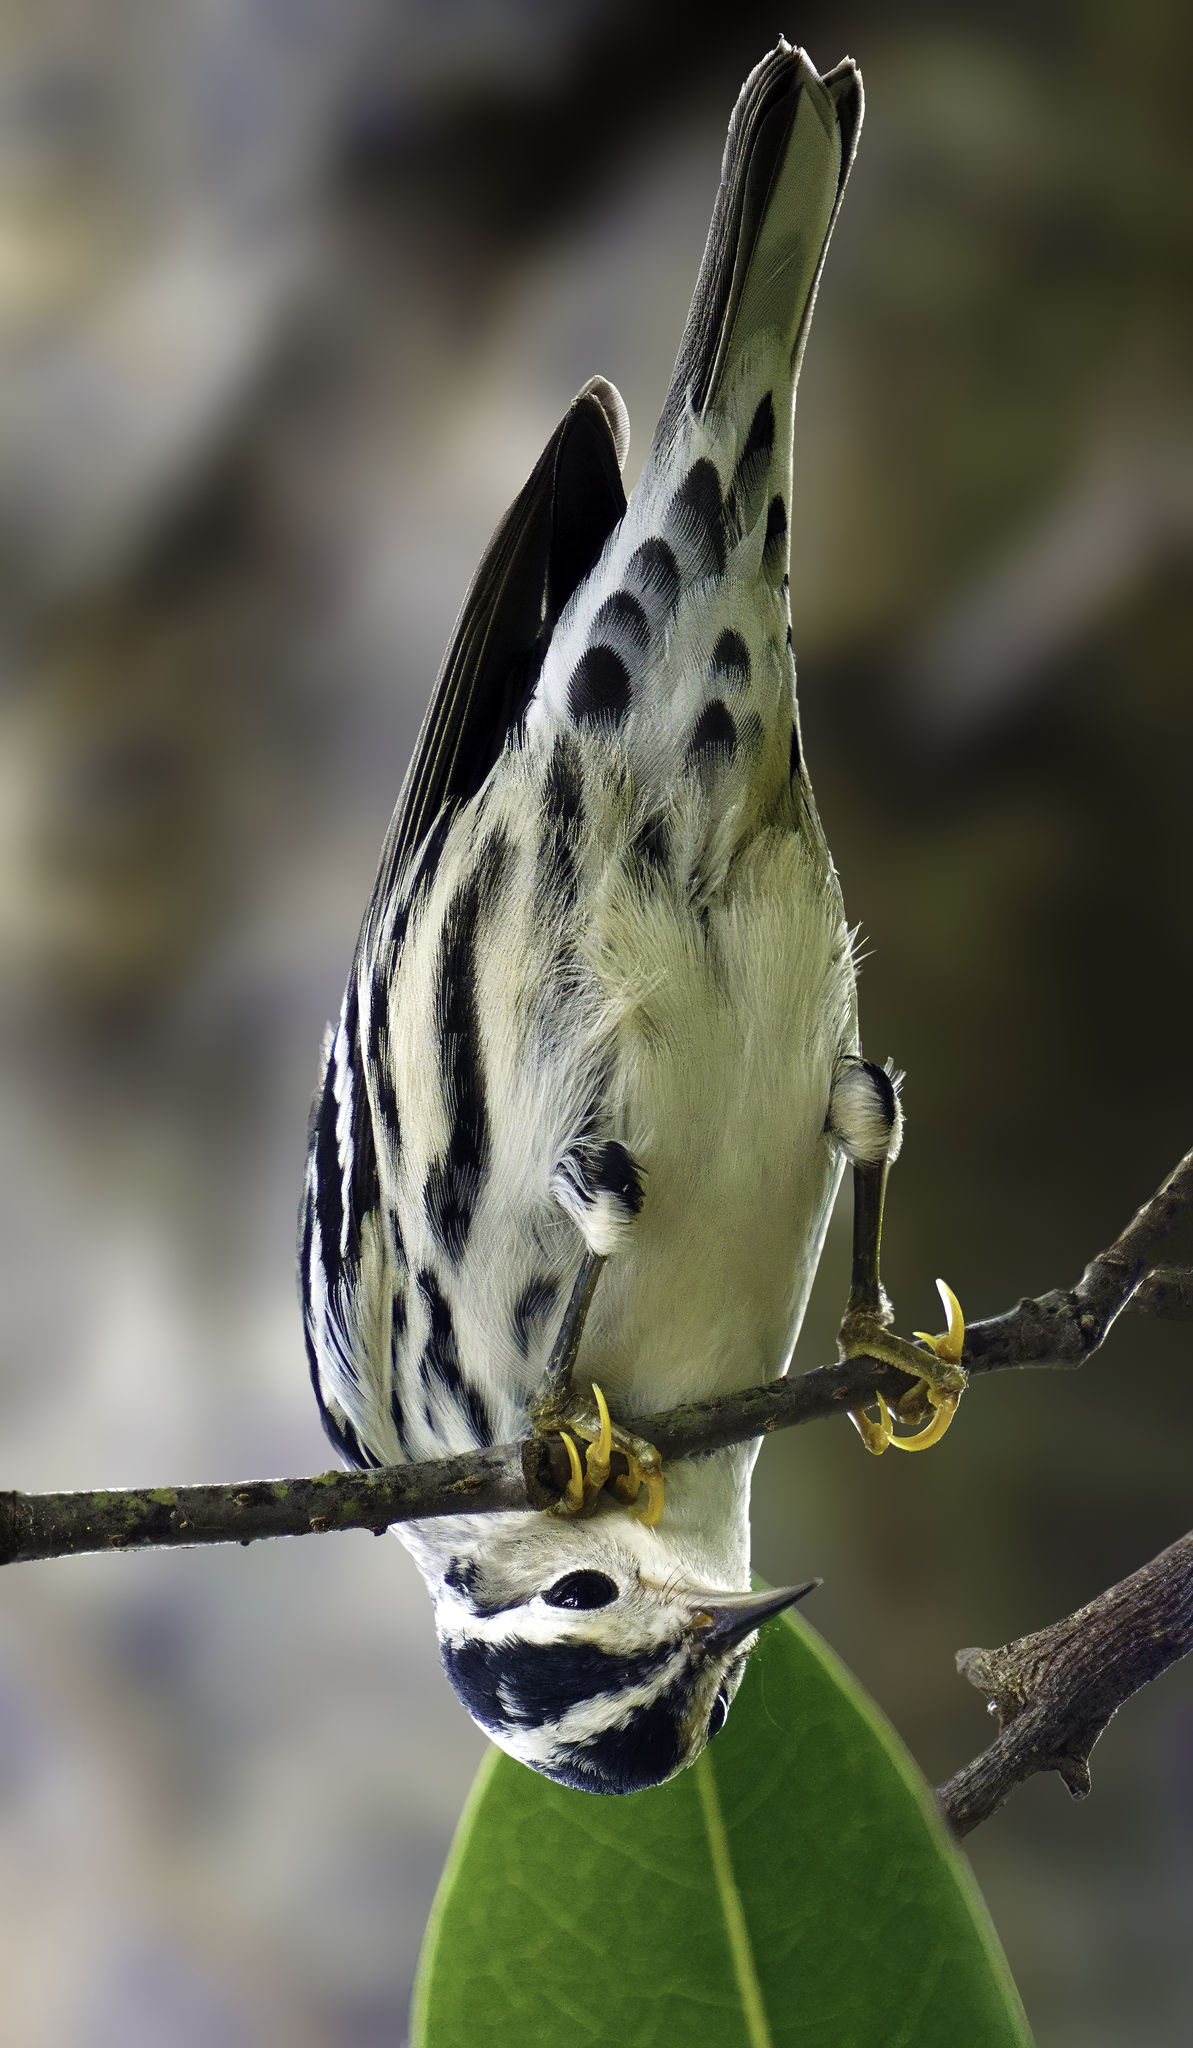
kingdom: Animalia
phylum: Chordata
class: Aves
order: Passeriformes
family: Parulidae
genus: Mniotilta
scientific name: Mniotilta varia
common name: Black-and-white warbler
